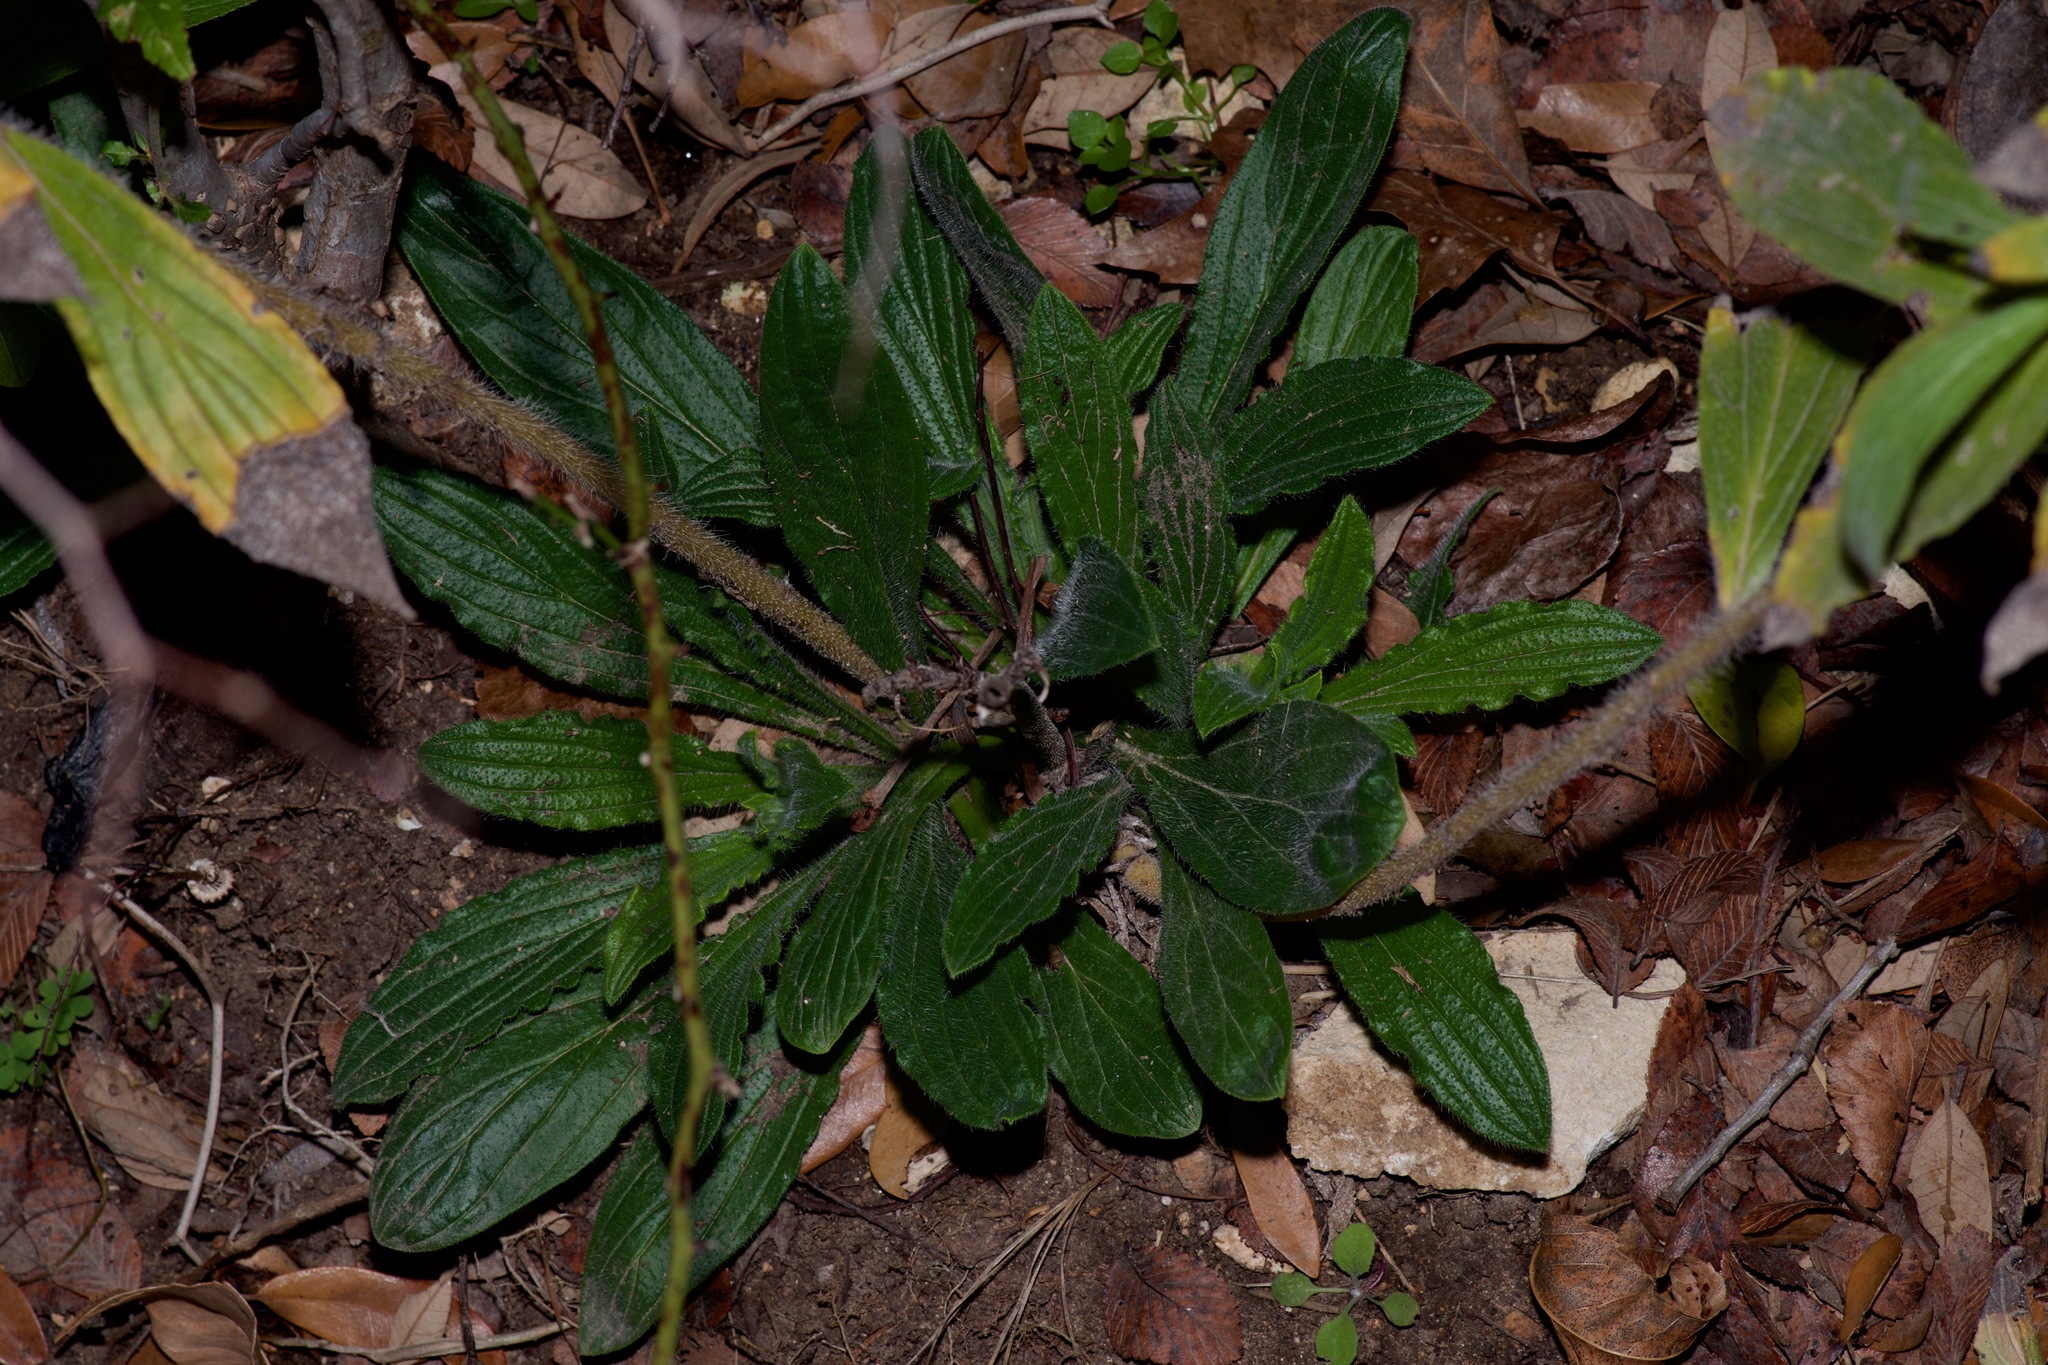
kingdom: Plantae
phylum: Tracheophyta
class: Magnoliopsida
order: Boraginales
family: Boraginaceae
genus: Lithospermum
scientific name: Lithospermum caroliniense
